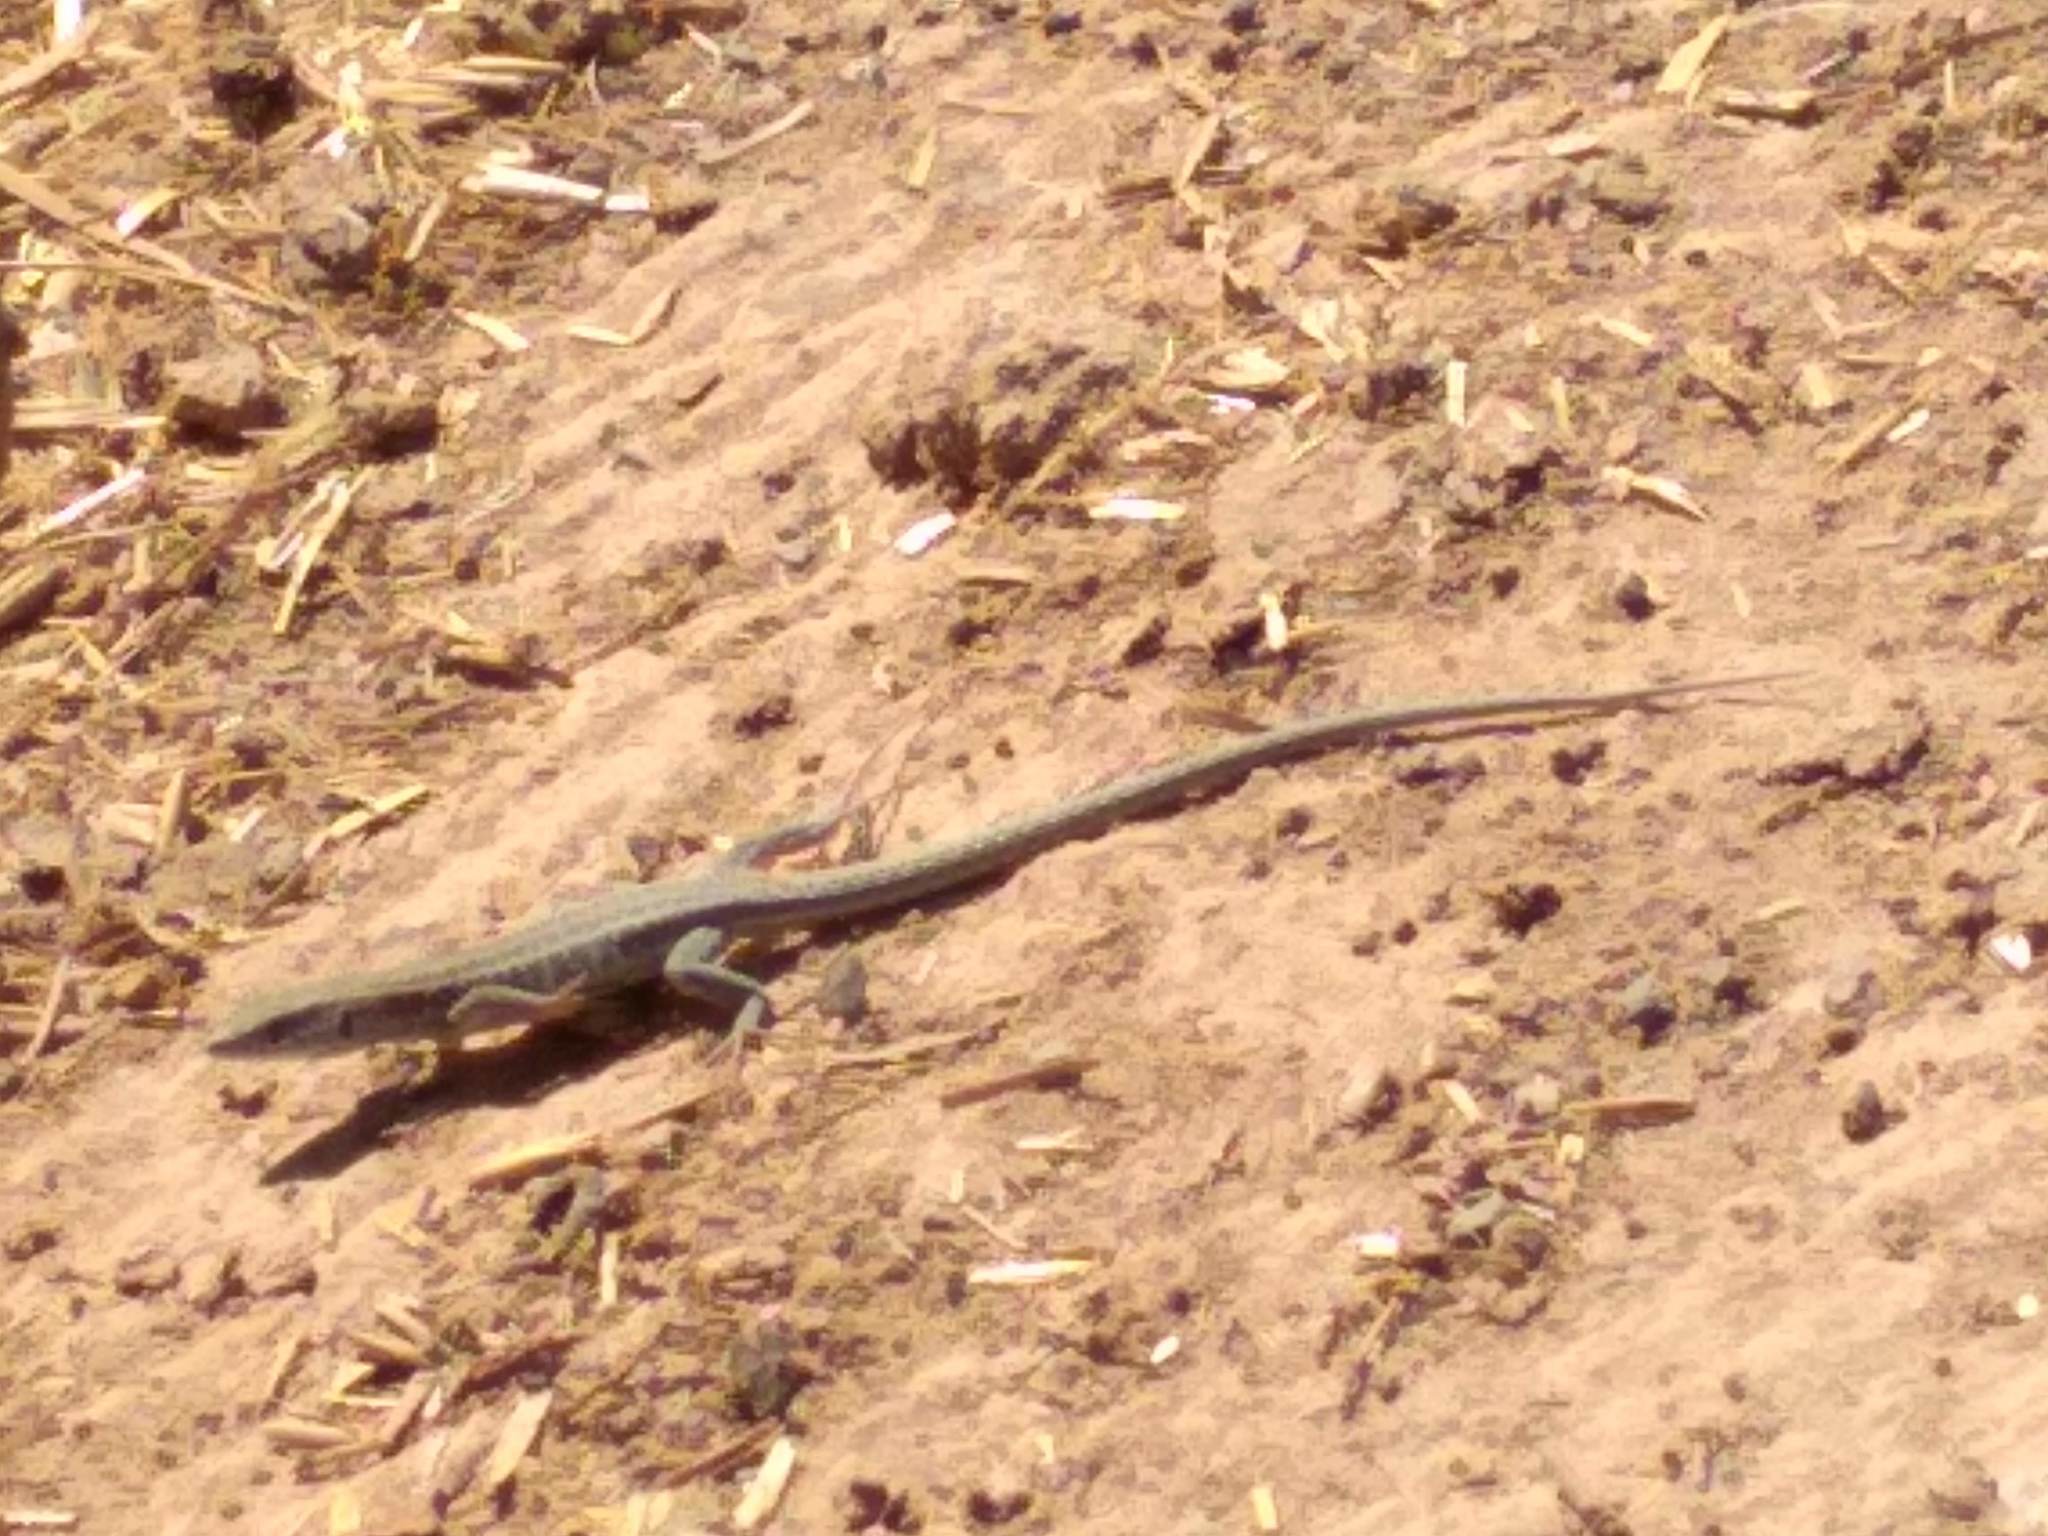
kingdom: Animalia
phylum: Chordata
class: Squamata
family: Lacertidae
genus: Gallotia
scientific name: Gallotia atlantica
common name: Atlantic lizard
